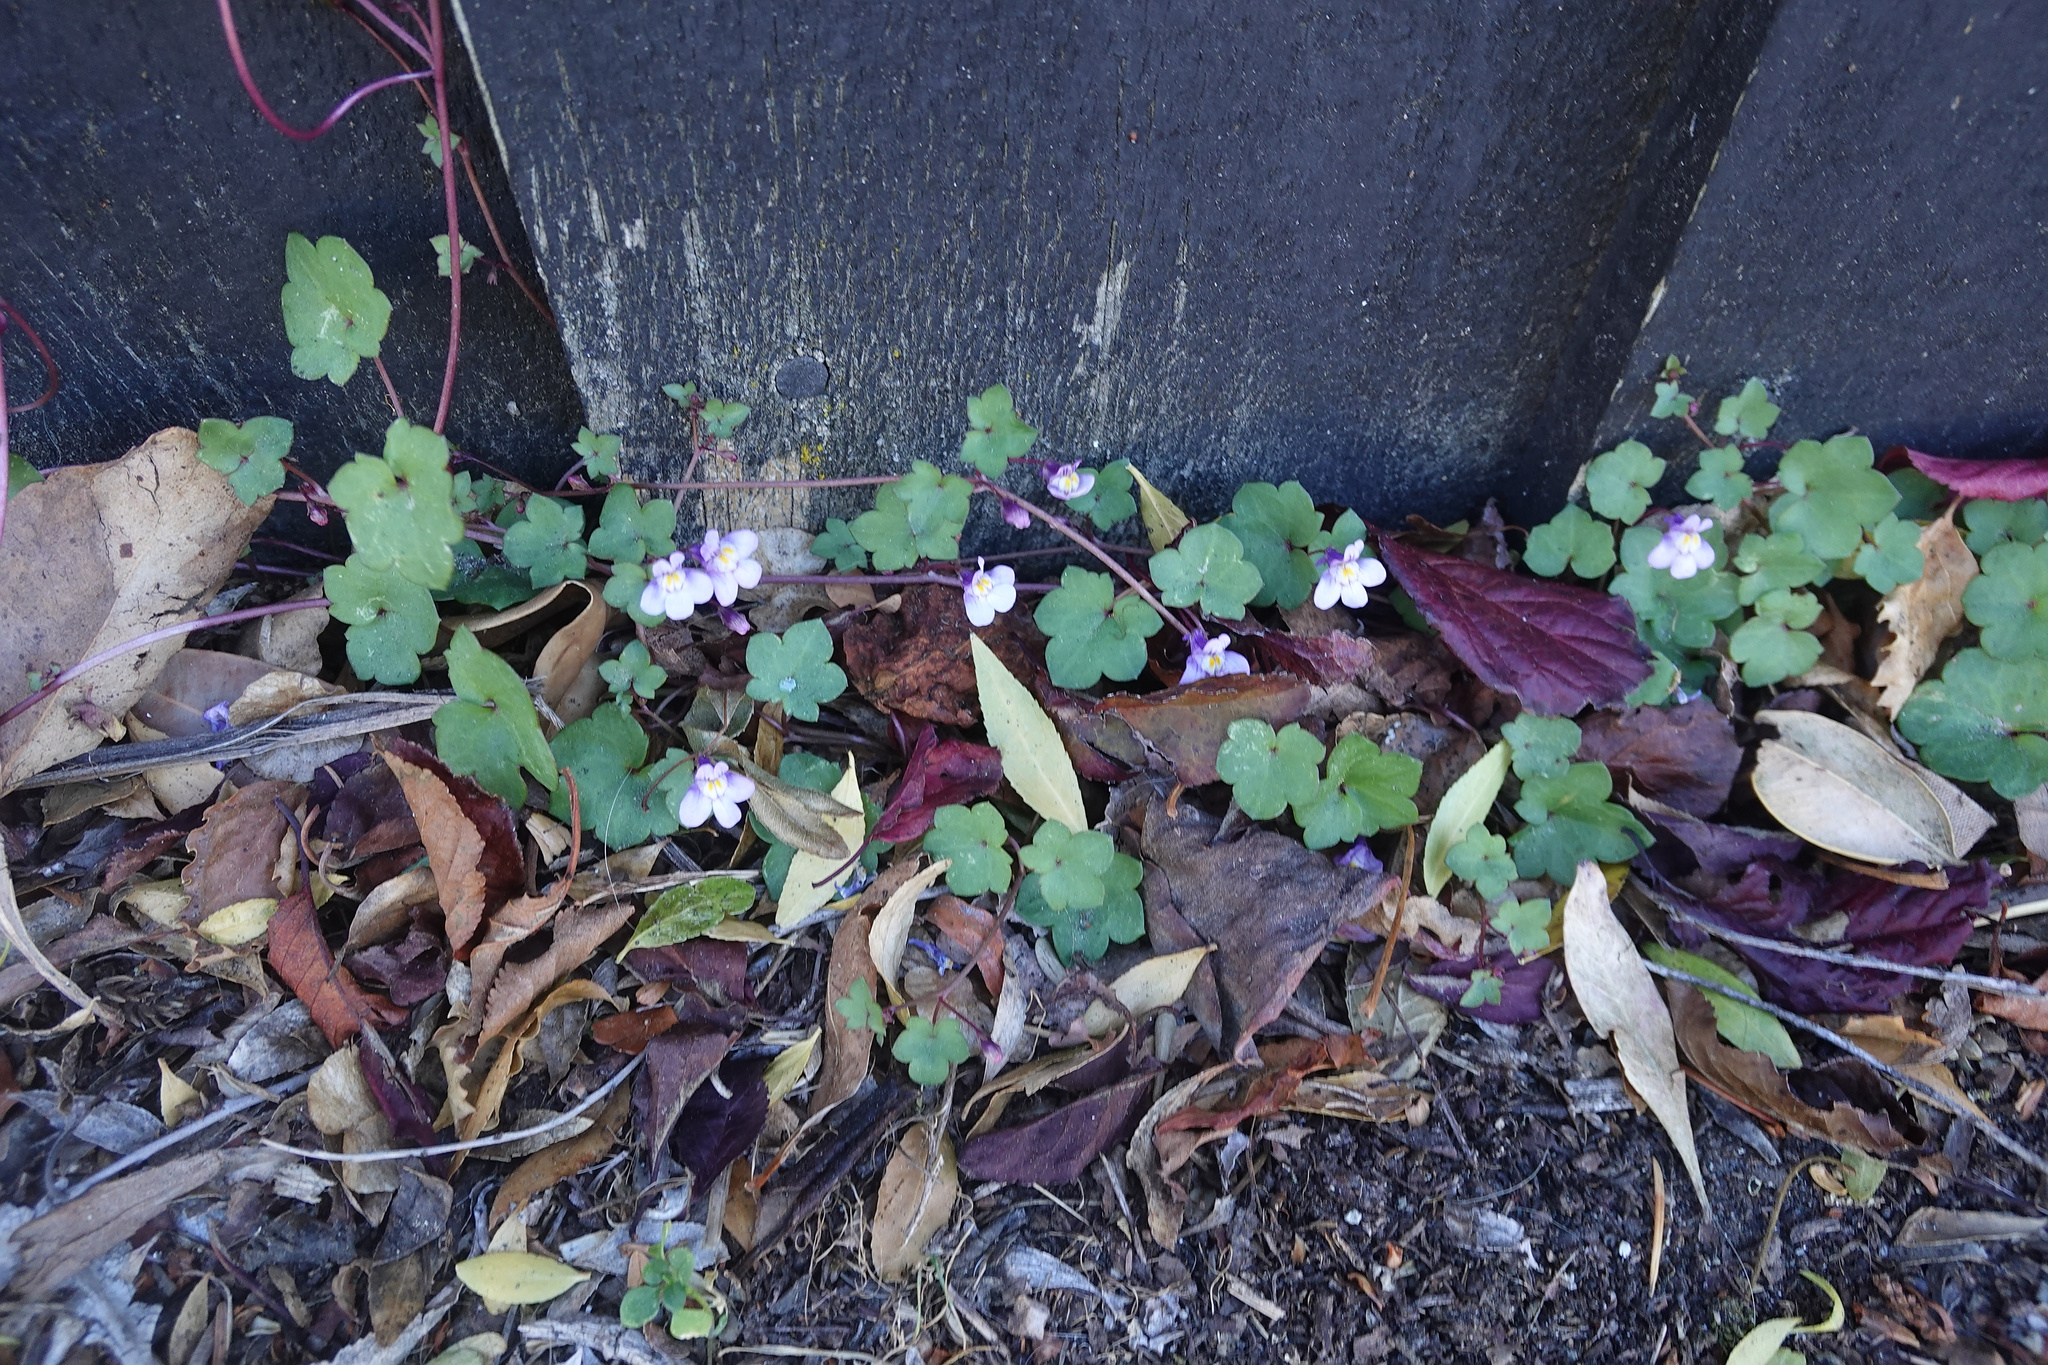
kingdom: Plantae
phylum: Tracheophyta
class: Magnoliopsida
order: Lamiales
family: Plantaginaceae
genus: Cymbalaria
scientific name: Cymbalaria muralis
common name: Ivy-leaved toadflax
